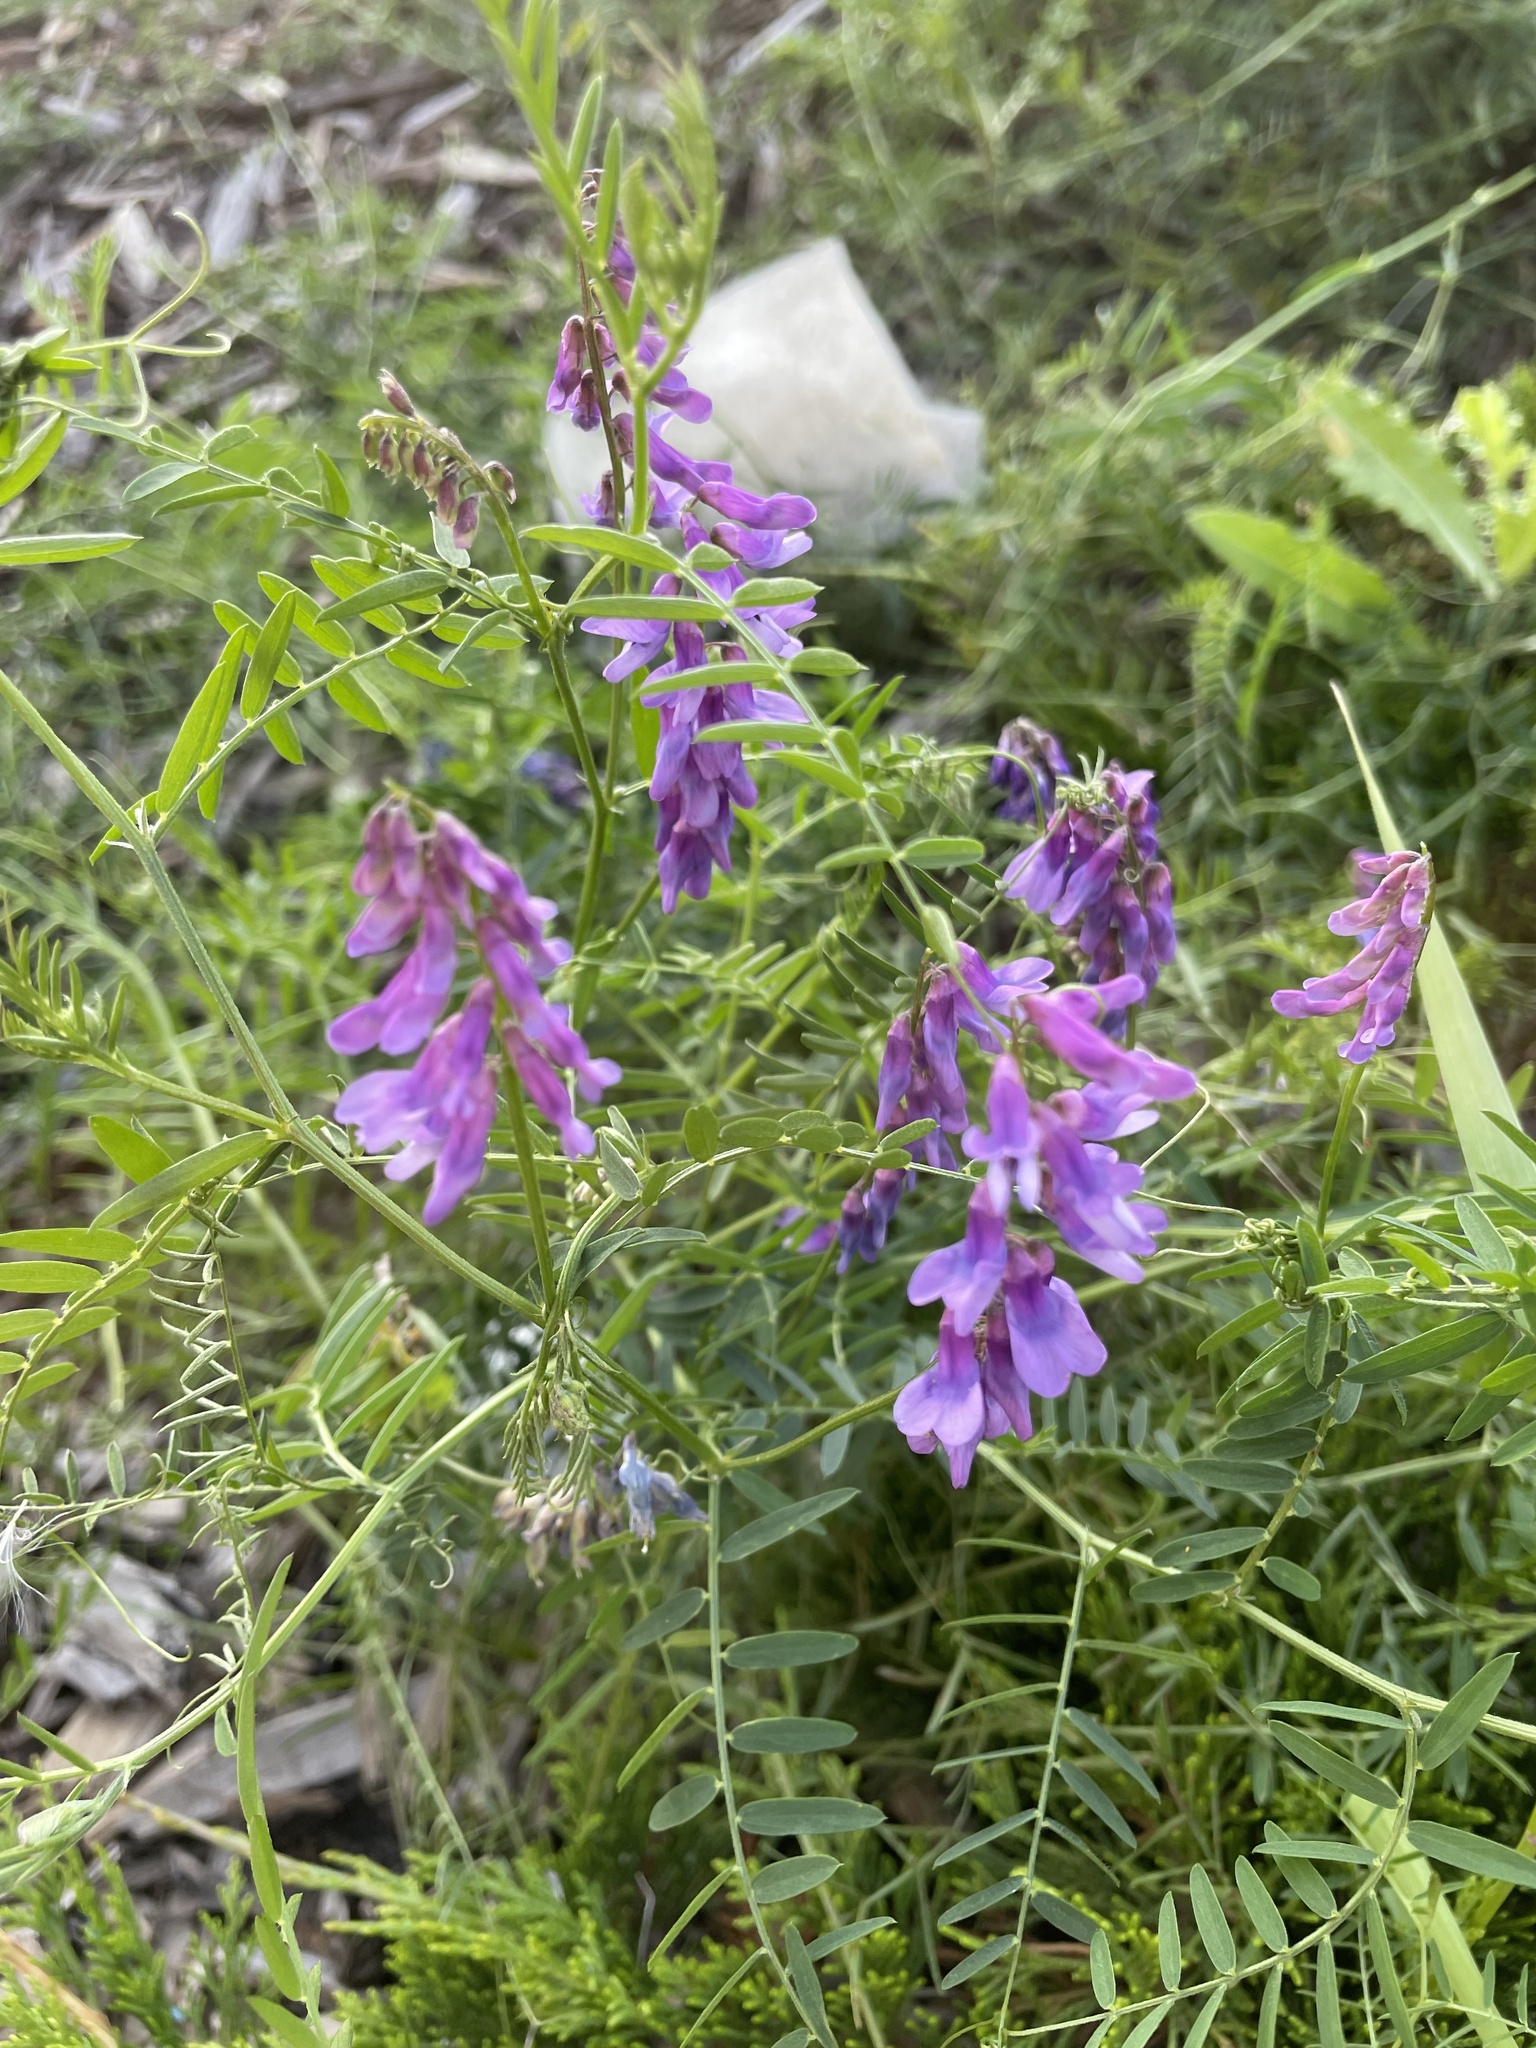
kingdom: Plantae
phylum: Tracheophyta
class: Magnoliopsida
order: Fabales
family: Fabaceae
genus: Vicia
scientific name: Vicia cracca
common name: Bird vetch
